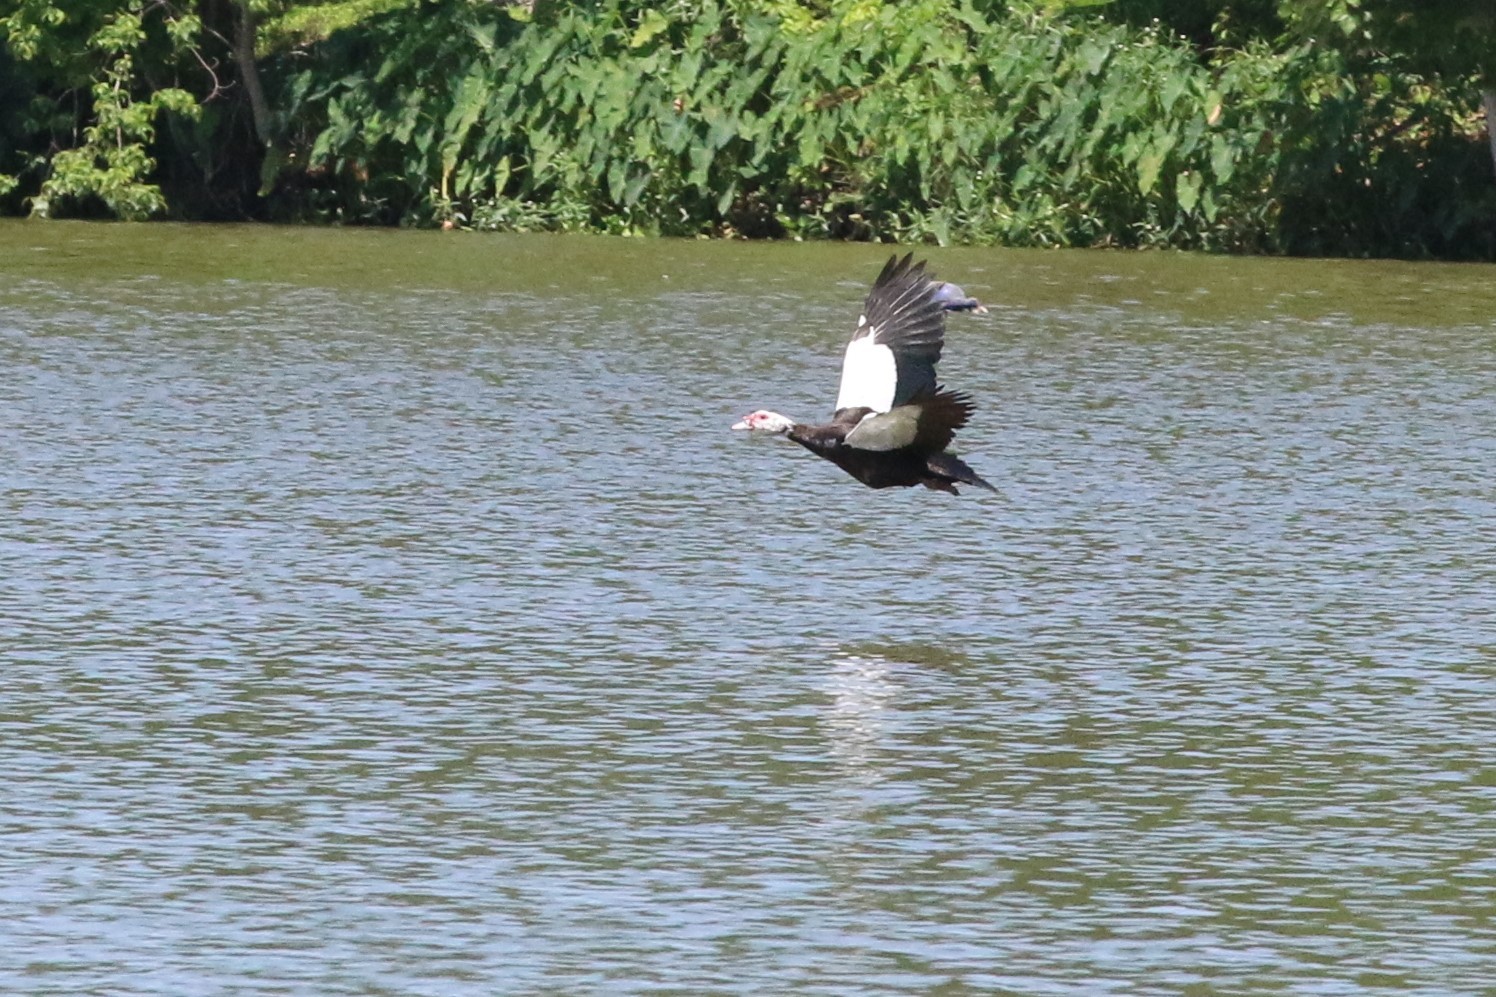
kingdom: Animalia
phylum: Chordata
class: Aves
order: Anseriformes
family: Anatidae
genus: Cairina
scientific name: Cairina moschata
